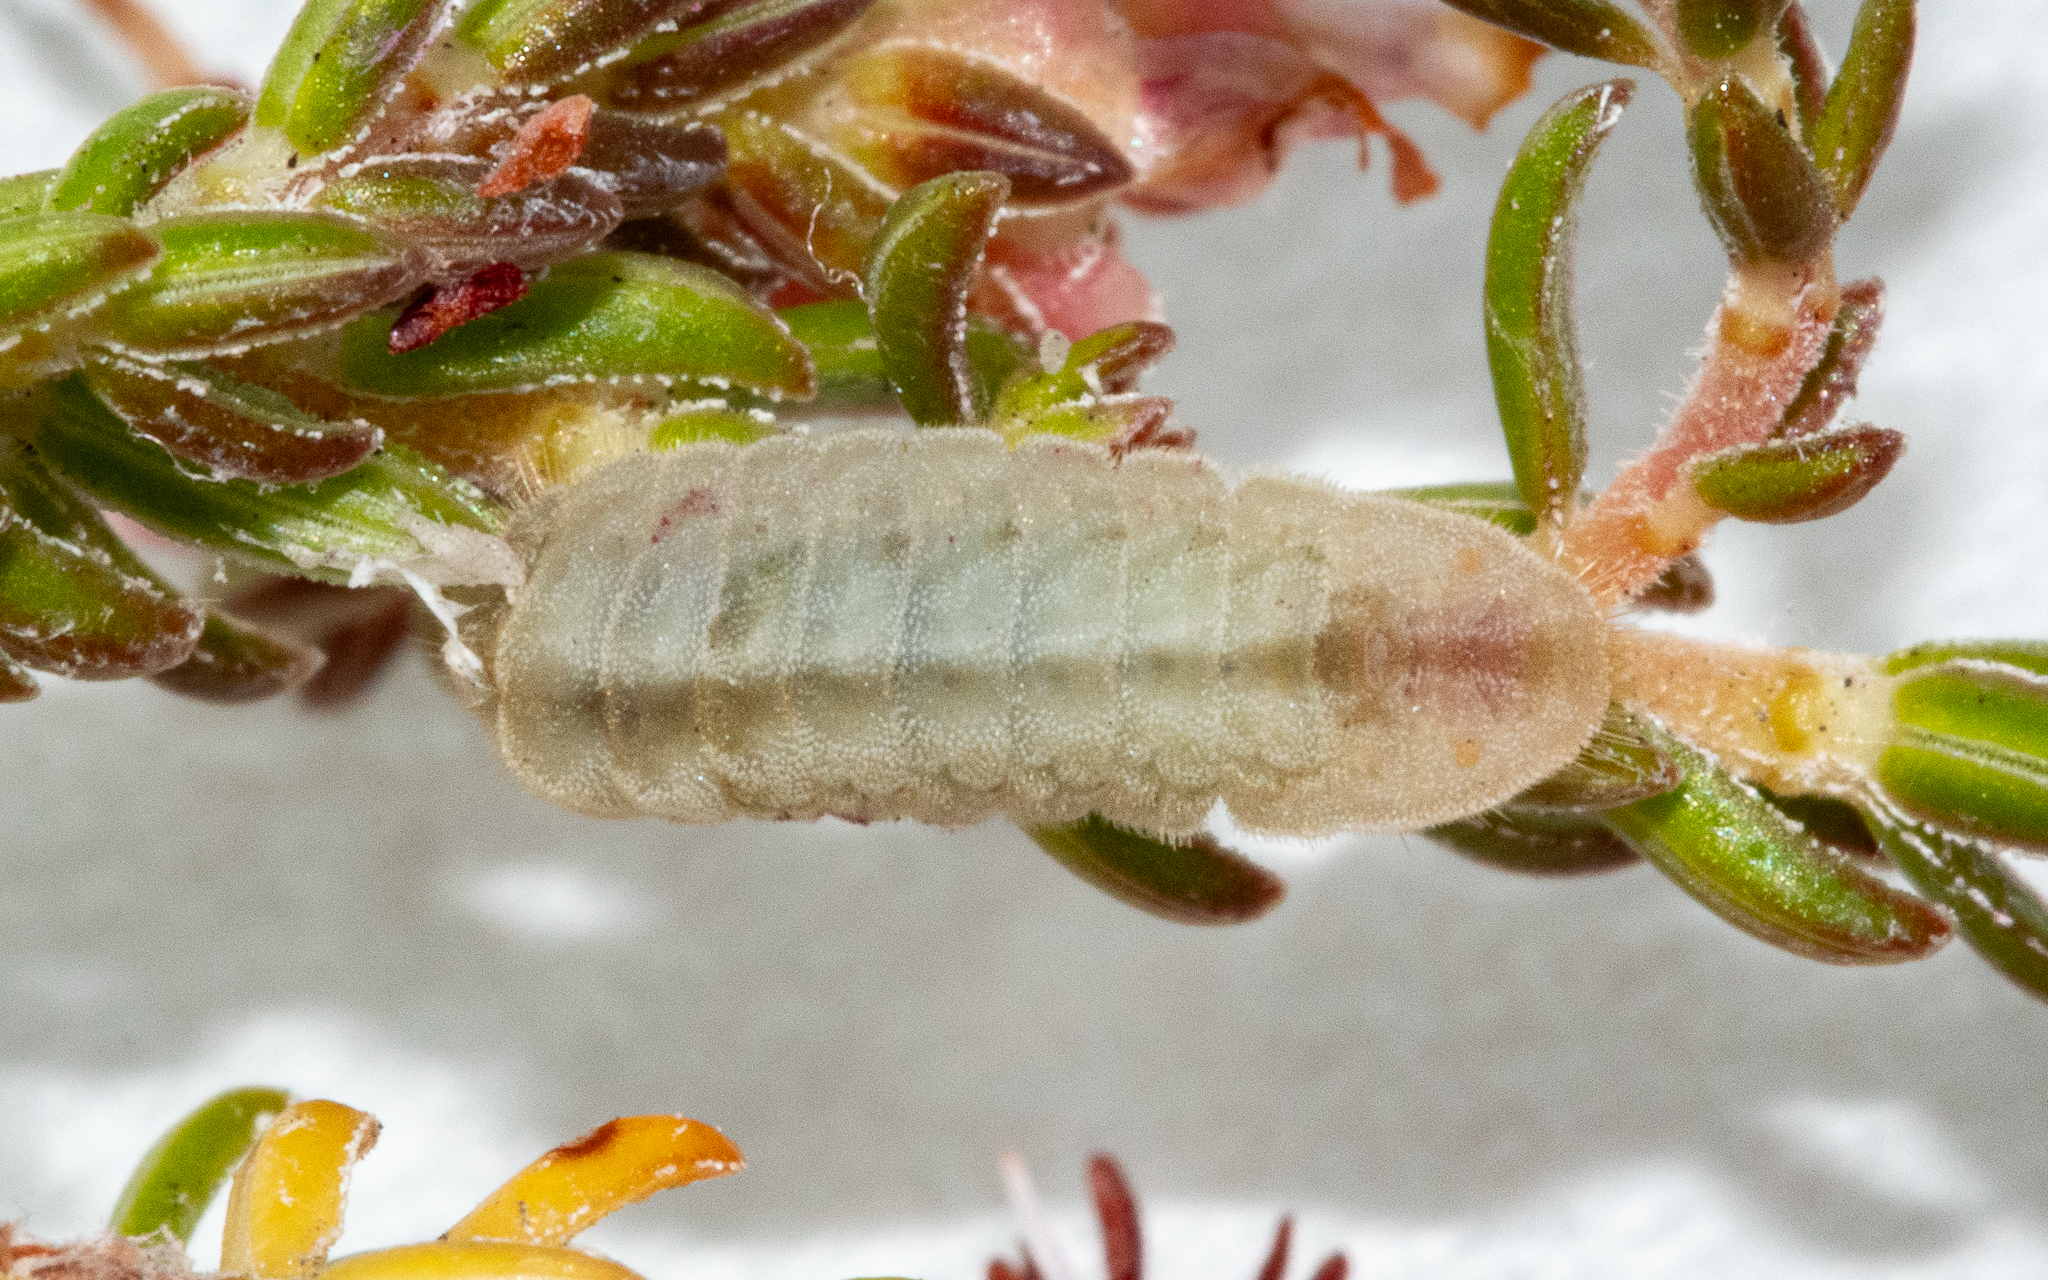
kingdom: Animalia
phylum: Arthropoda
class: Insecta
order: Lepidoptera
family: Lycaenidae
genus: Leptotes
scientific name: Leptotes
